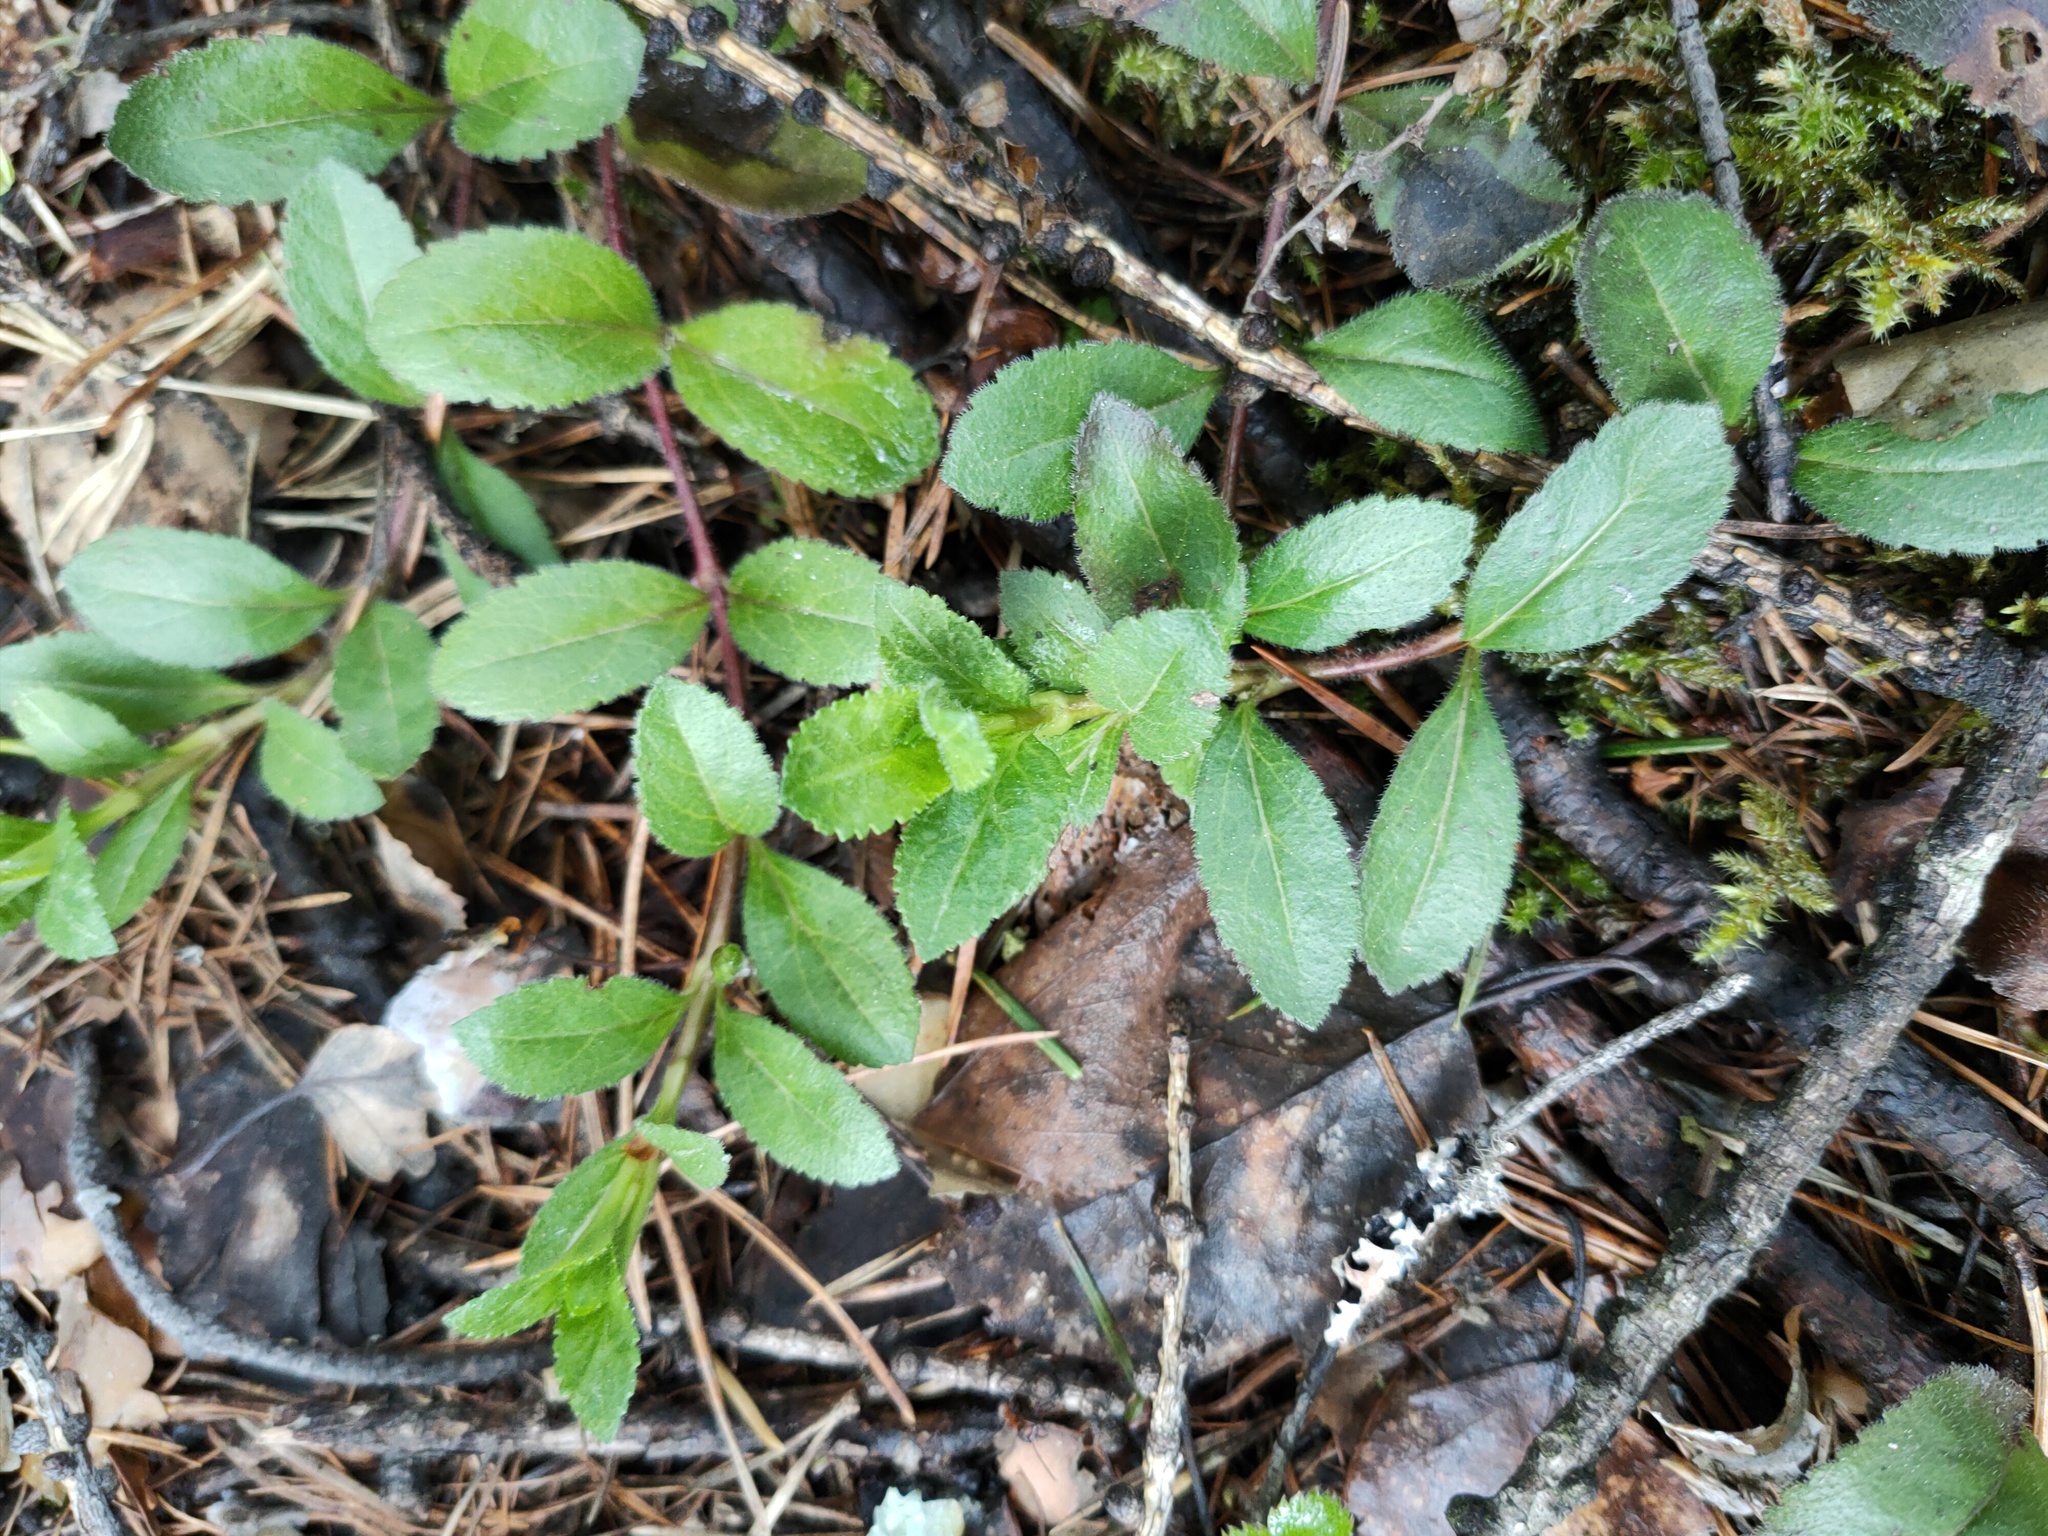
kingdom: Plantae
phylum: Tracheophyta
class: Magnoliopsida
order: Lamiales
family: Plantaginaceae
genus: Veronica
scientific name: Veronica officinalis
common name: Common speedwell
